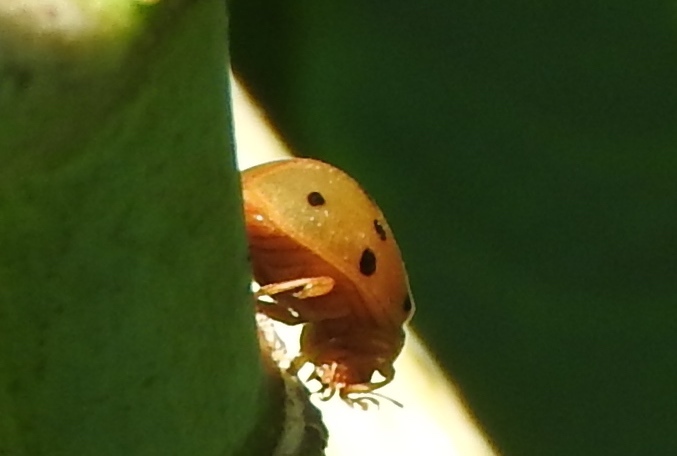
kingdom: Animalia
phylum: Arthropoda
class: Insecta
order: Coleoptera
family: Coccinellidae
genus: Epilachna
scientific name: Epilachna tredecimnotata
